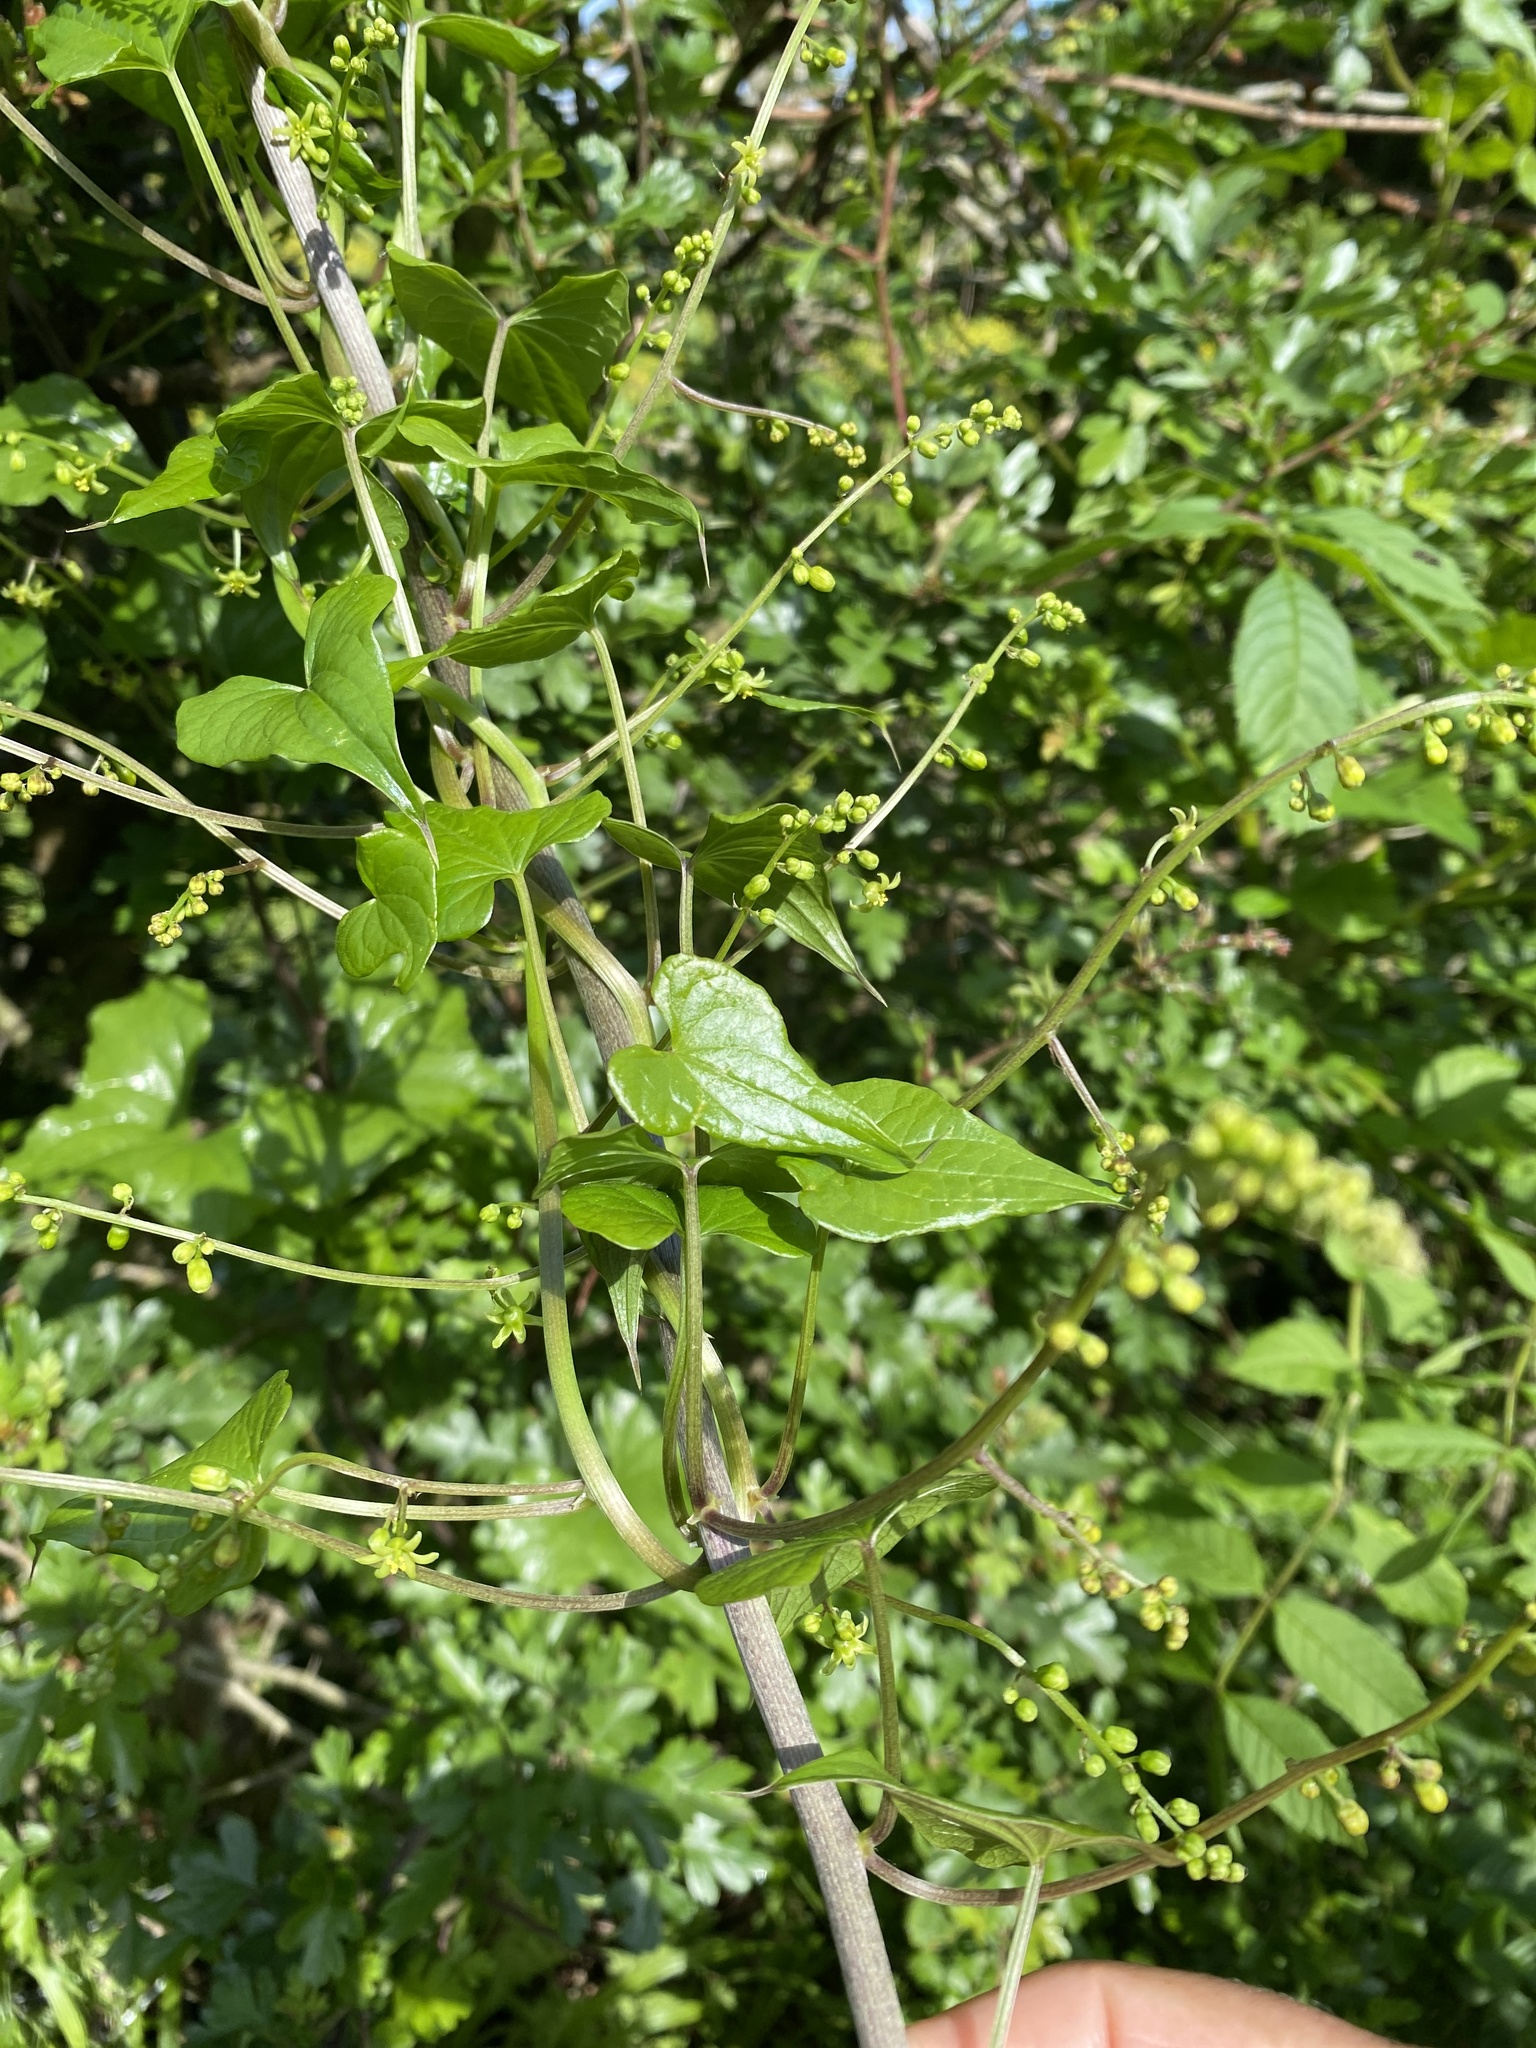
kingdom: Plantae
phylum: Tracheophyta
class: Liliopsida
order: Dioscoreales
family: Dioscoreaceae
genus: Dioscorea
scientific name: Dioscorea communis
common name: Black-bindweed
